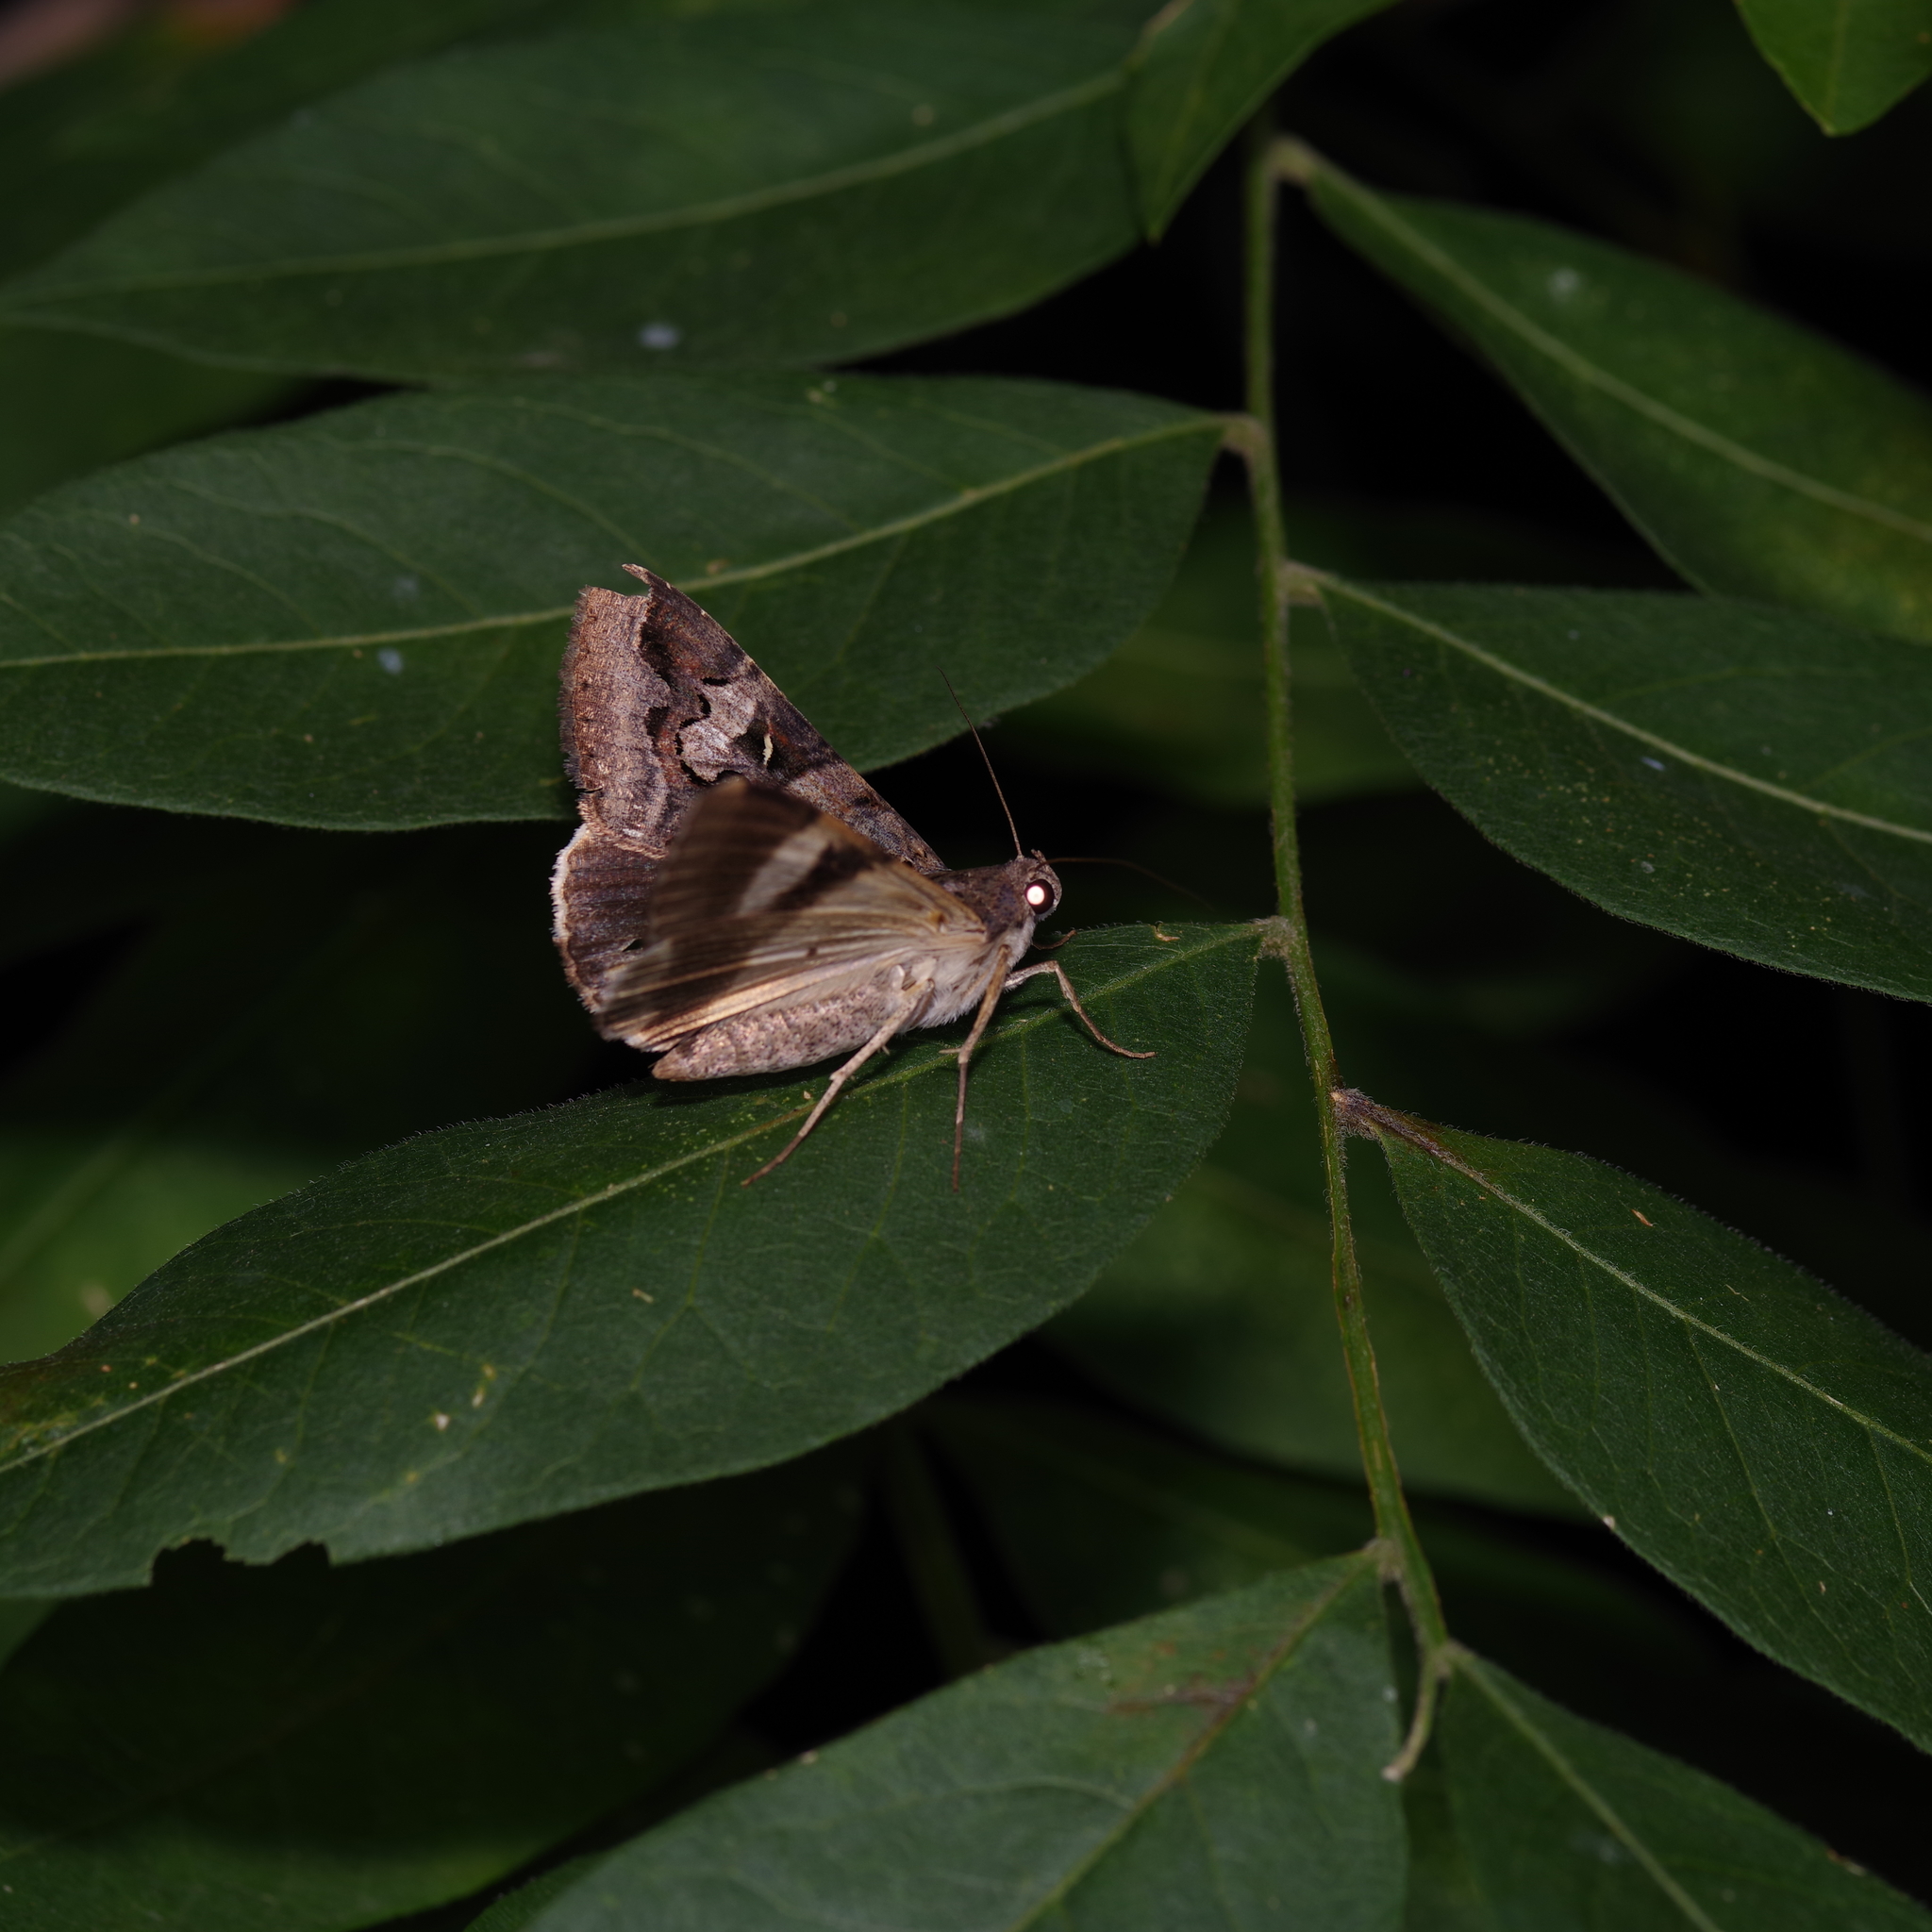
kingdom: Animalia
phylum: Arthropoda
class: Insecta
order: Lepidoptera
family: Erebidae
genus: Melipotis
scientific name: Melipotis indomita
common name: Moth
